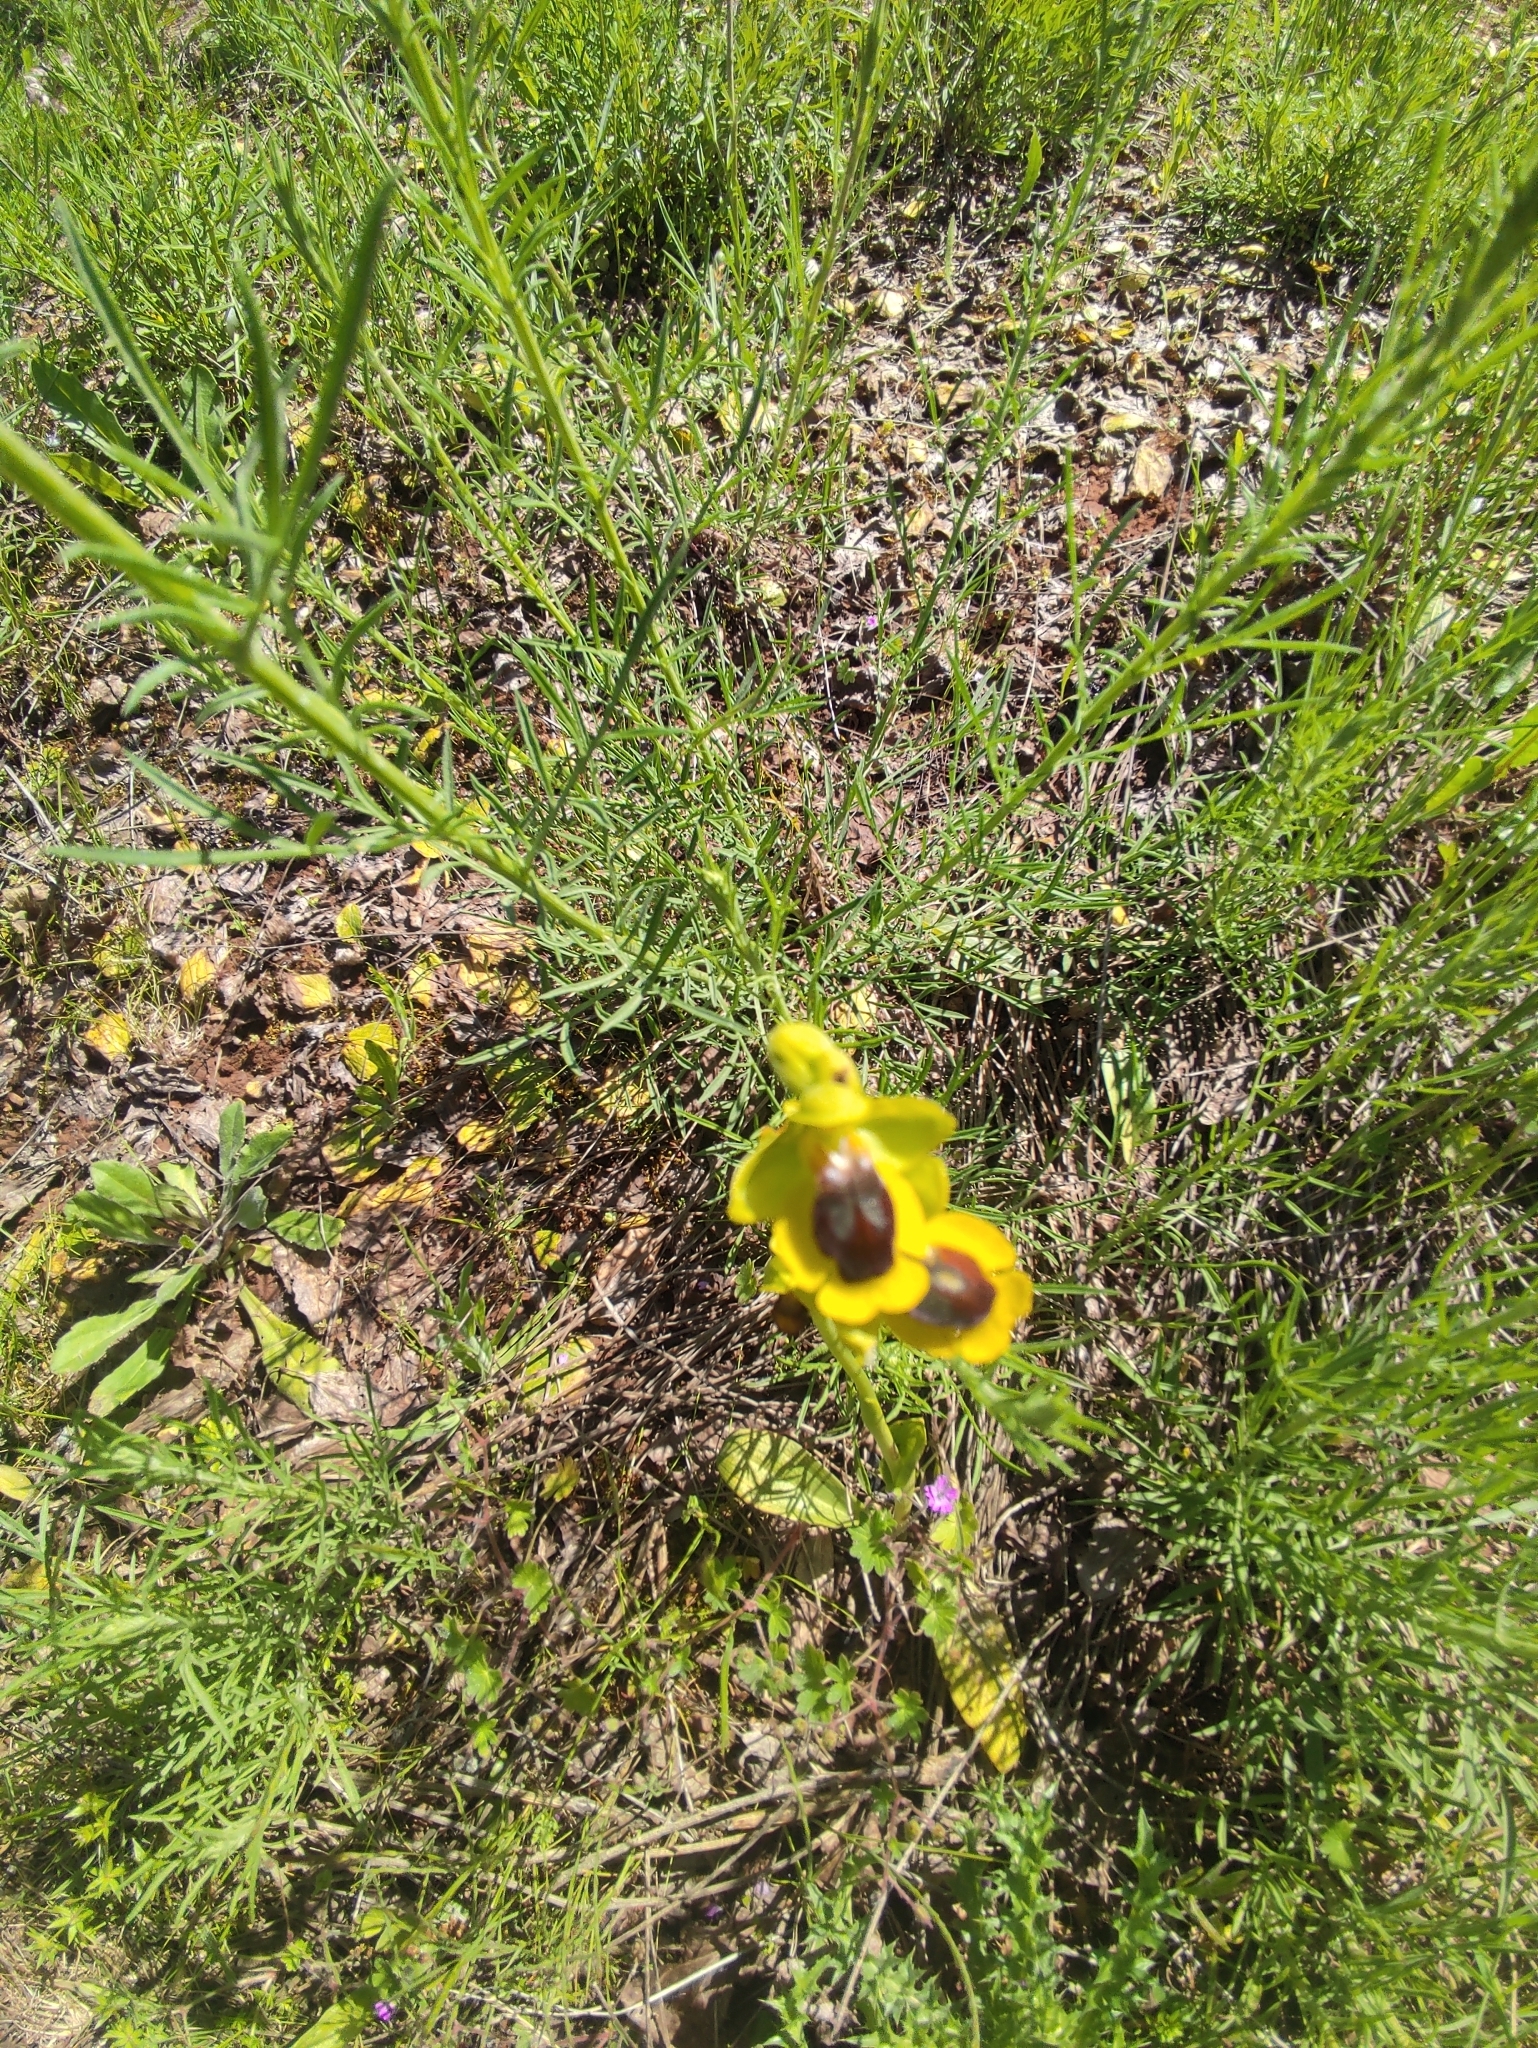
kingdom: Plantae
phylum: Tracheophyta
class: Liliopsida
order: Asparagales
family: Orchidaceae
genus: Ophrys
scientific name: Ophrys lutea
